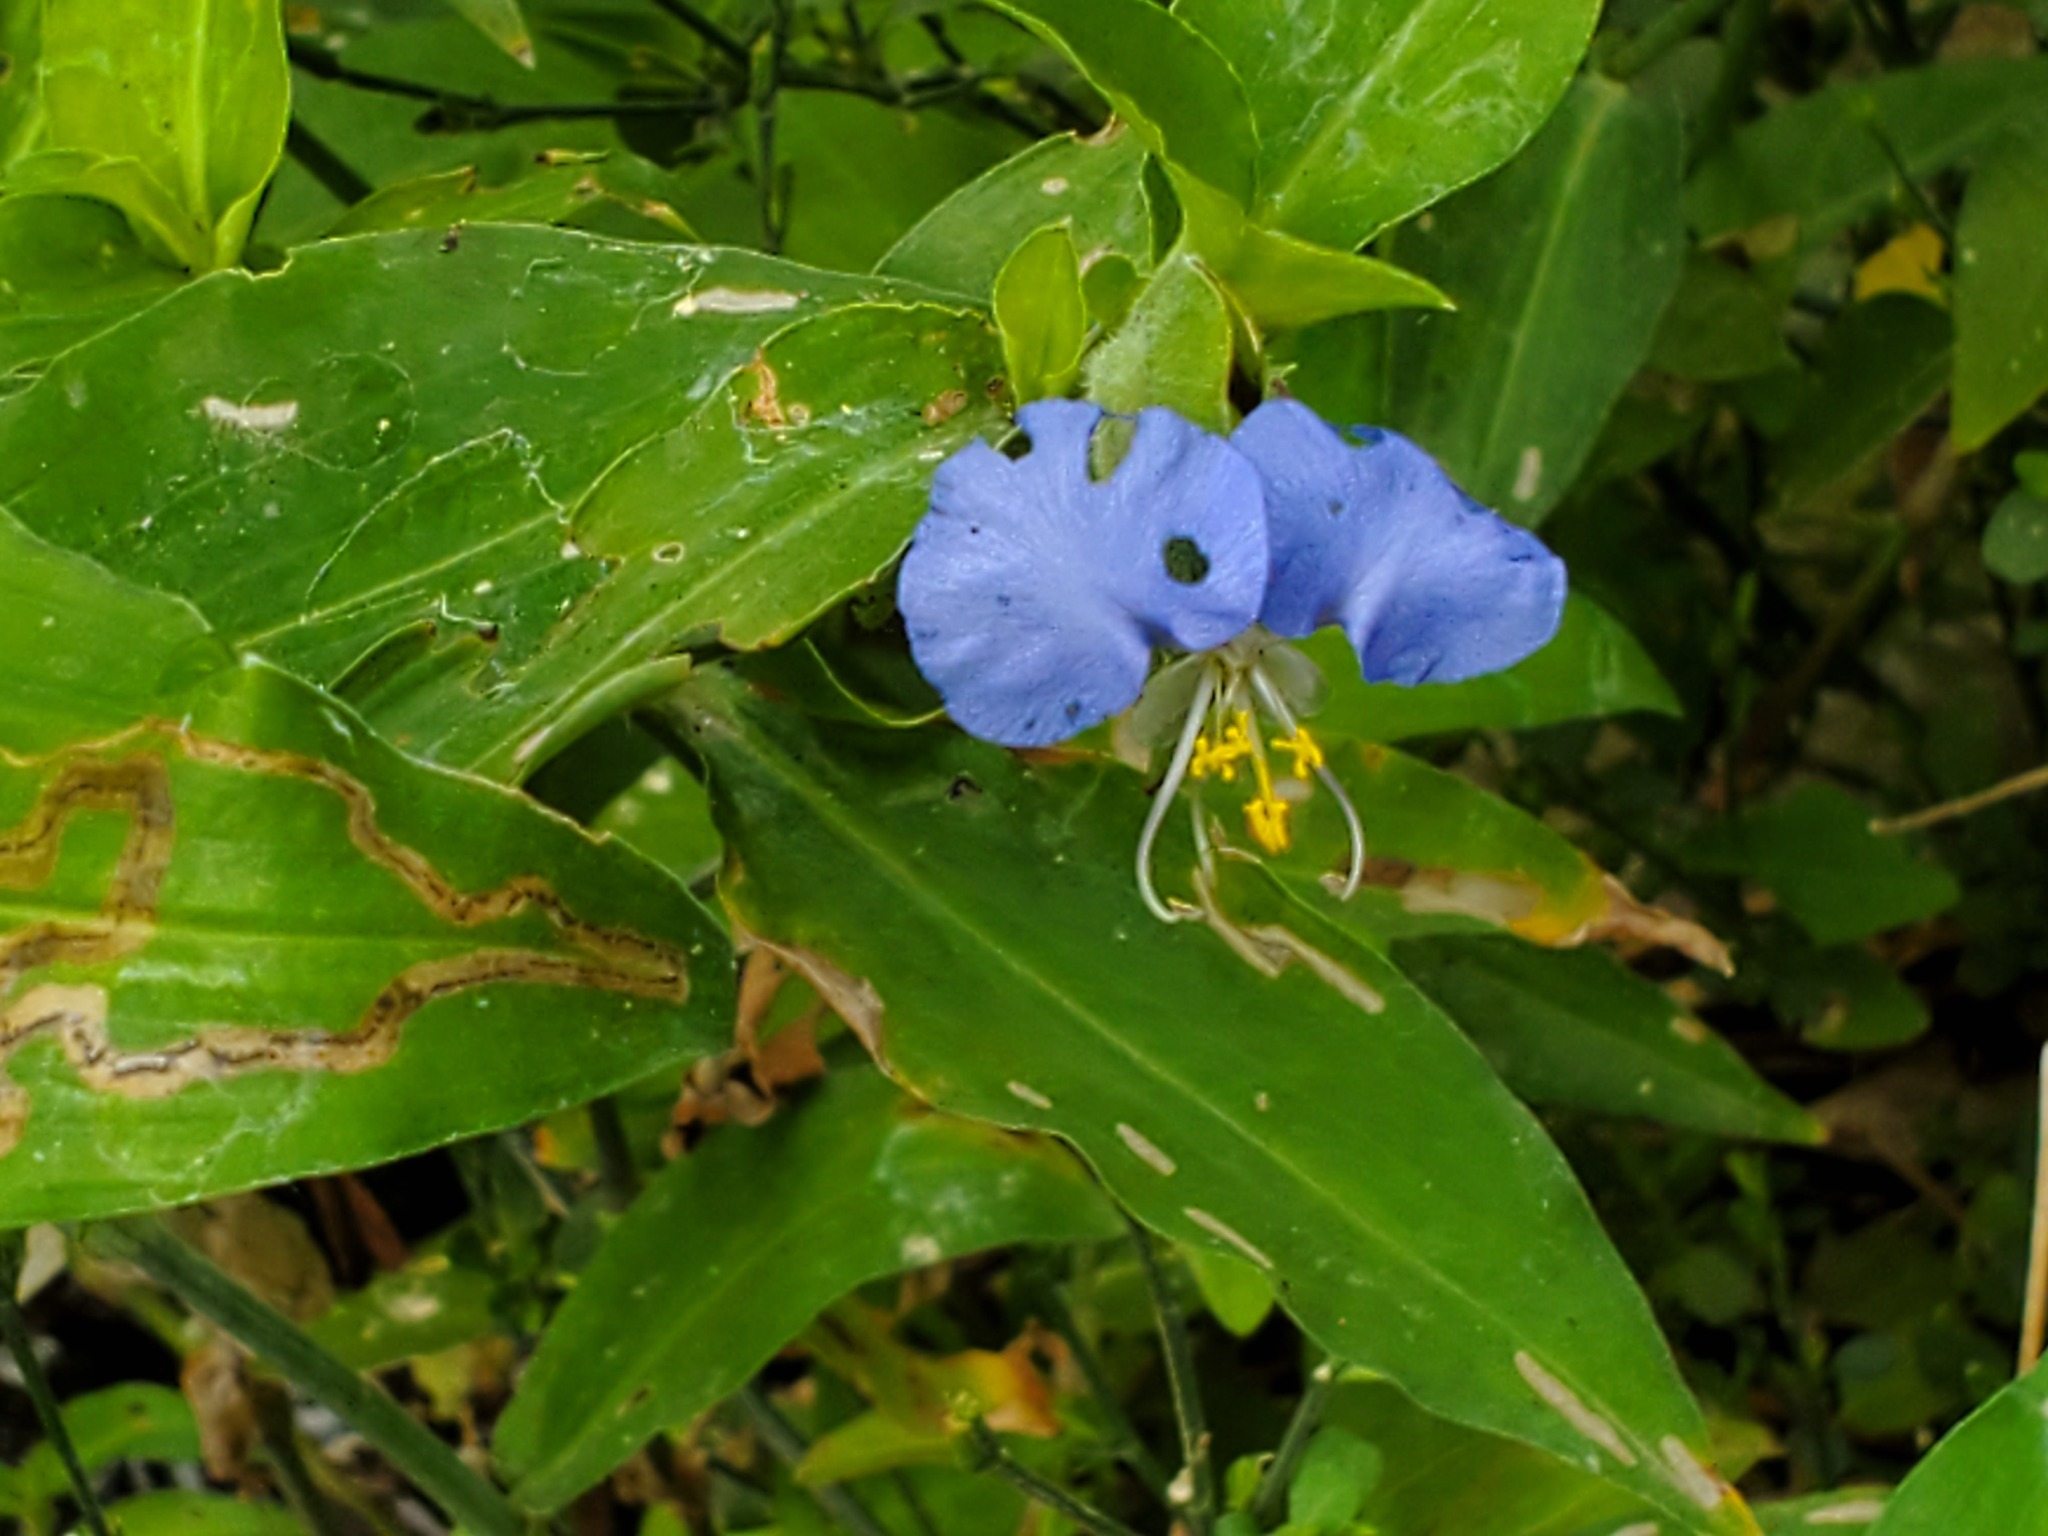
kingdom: Plantae
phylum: Tracheophyta
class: Liliopsida
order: Commelinales
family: Commelinaceae
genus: Commelina
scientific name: Commelina erecta
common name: Blousel blommetjie
